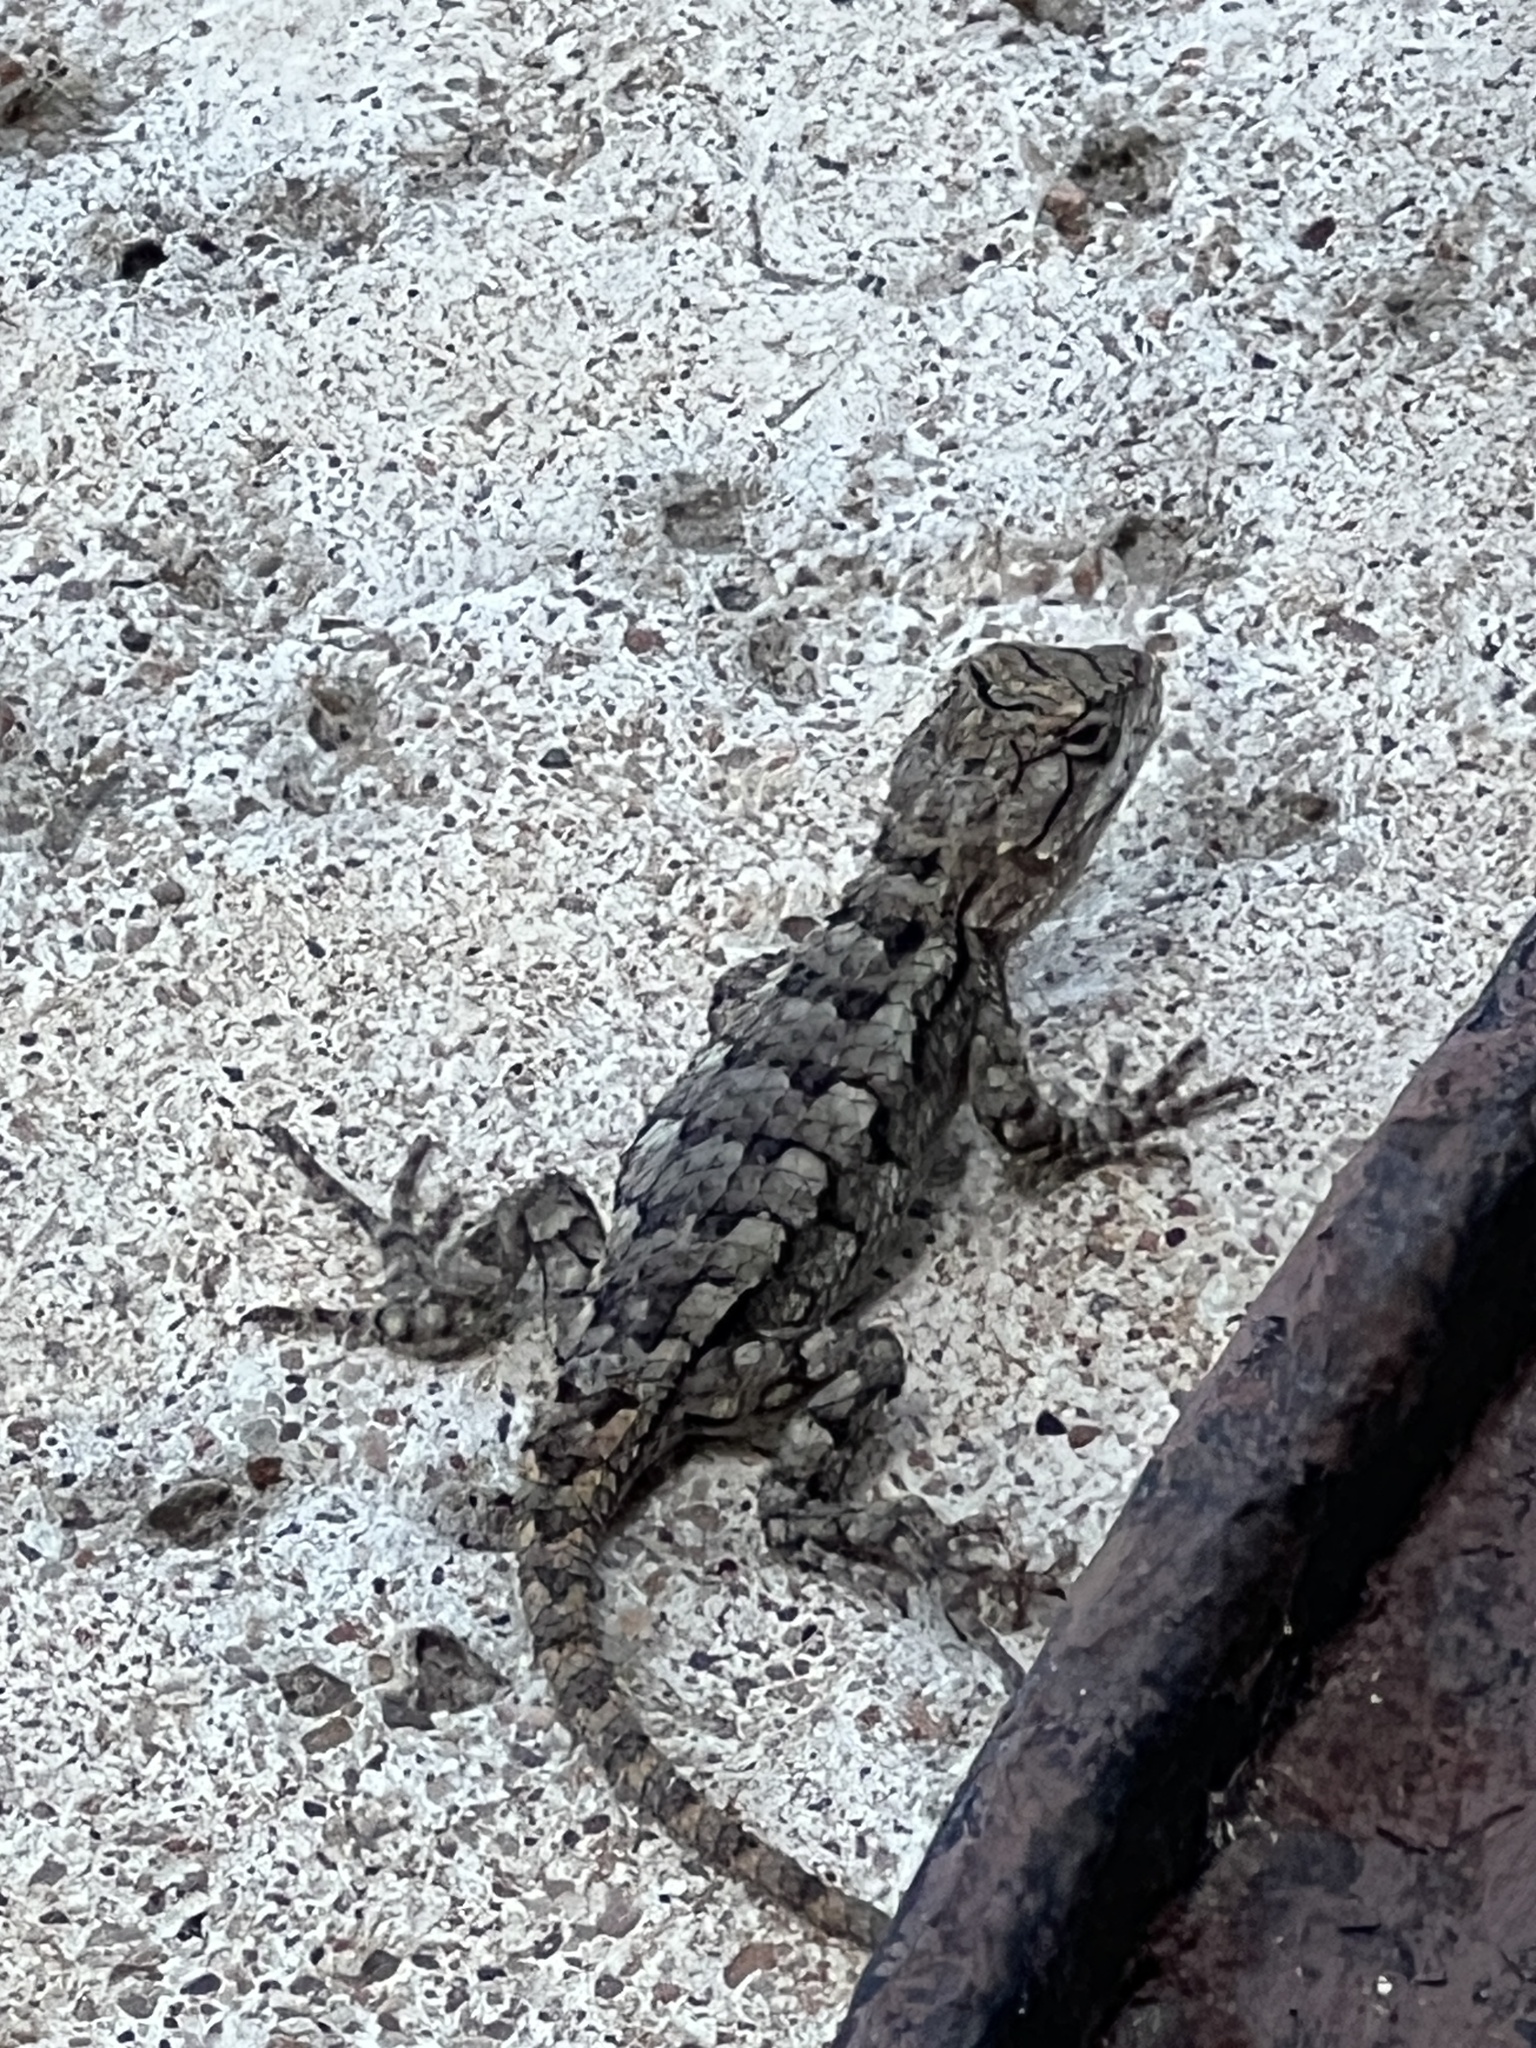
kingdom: Animalia
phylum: Chordata
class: Squamata
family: Phrynosomatidae
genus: Sceloporus
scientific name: Sceloporus olivaceus
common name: Texas spiny lizard
